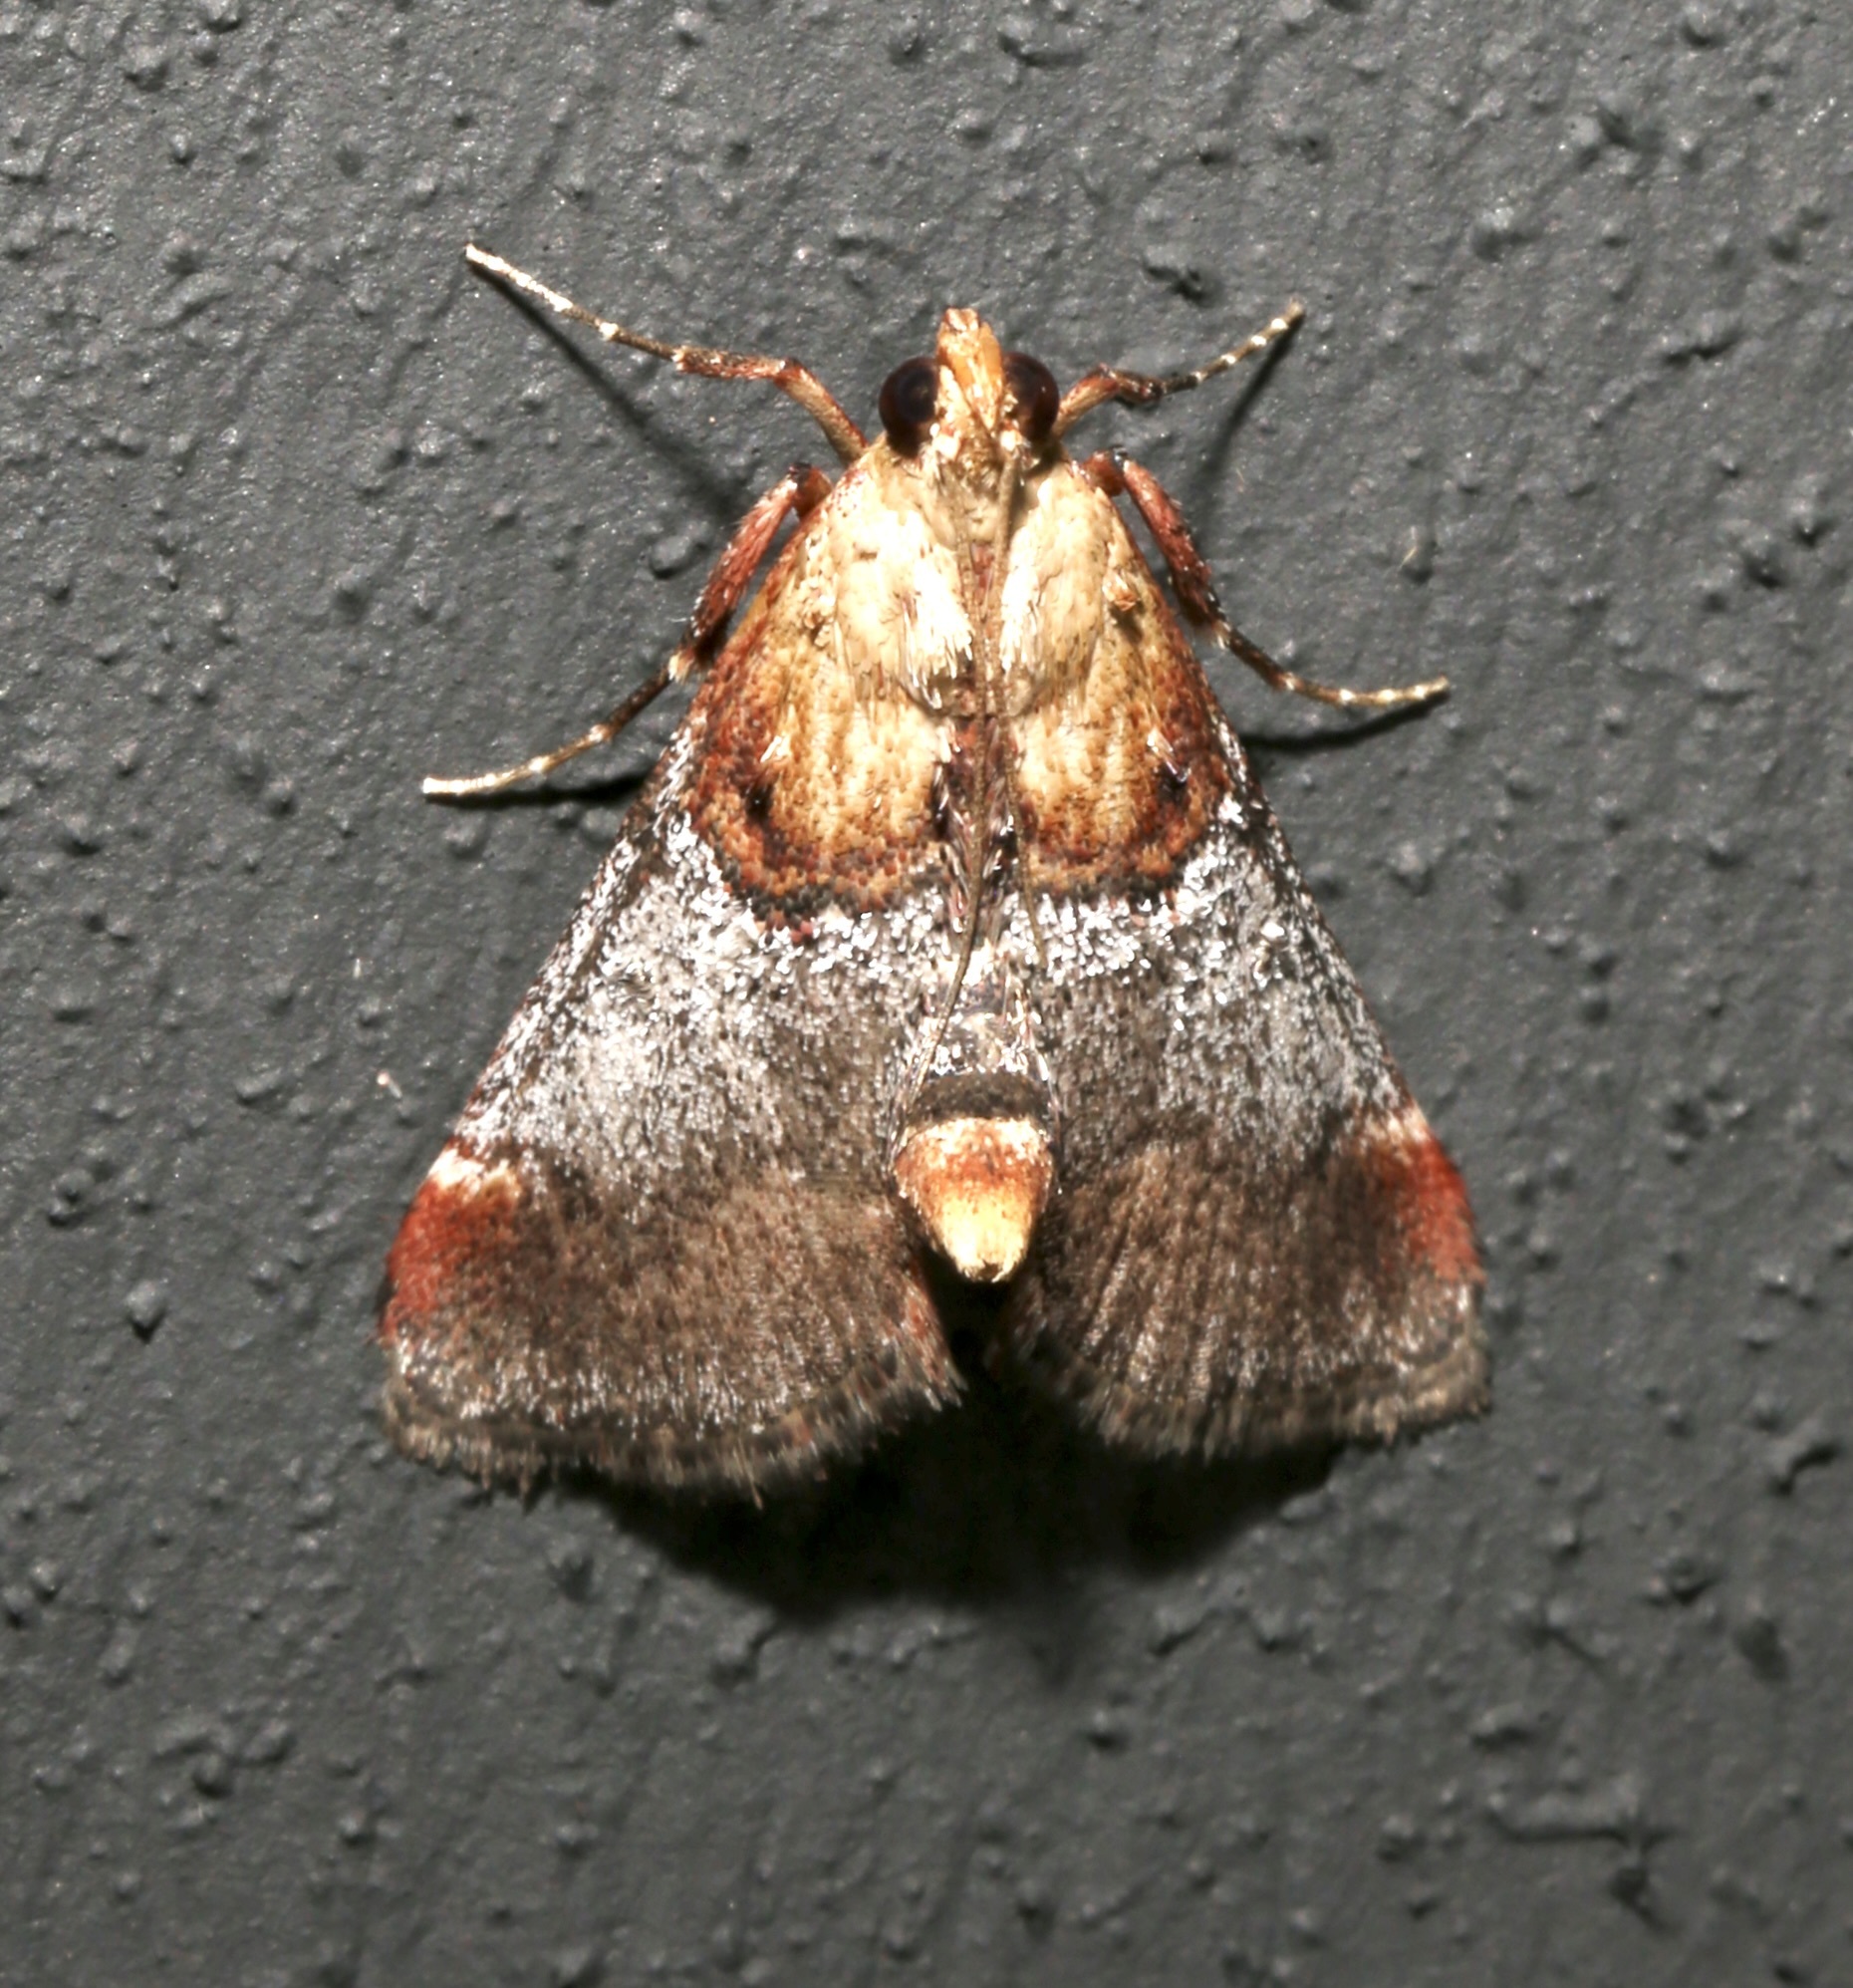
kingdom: Animalia
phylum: Arthropoda
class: Insecta
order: Lepidoptera
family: Pyralidae
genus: Cacozelia
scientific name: Cacozelia basiochrealis
